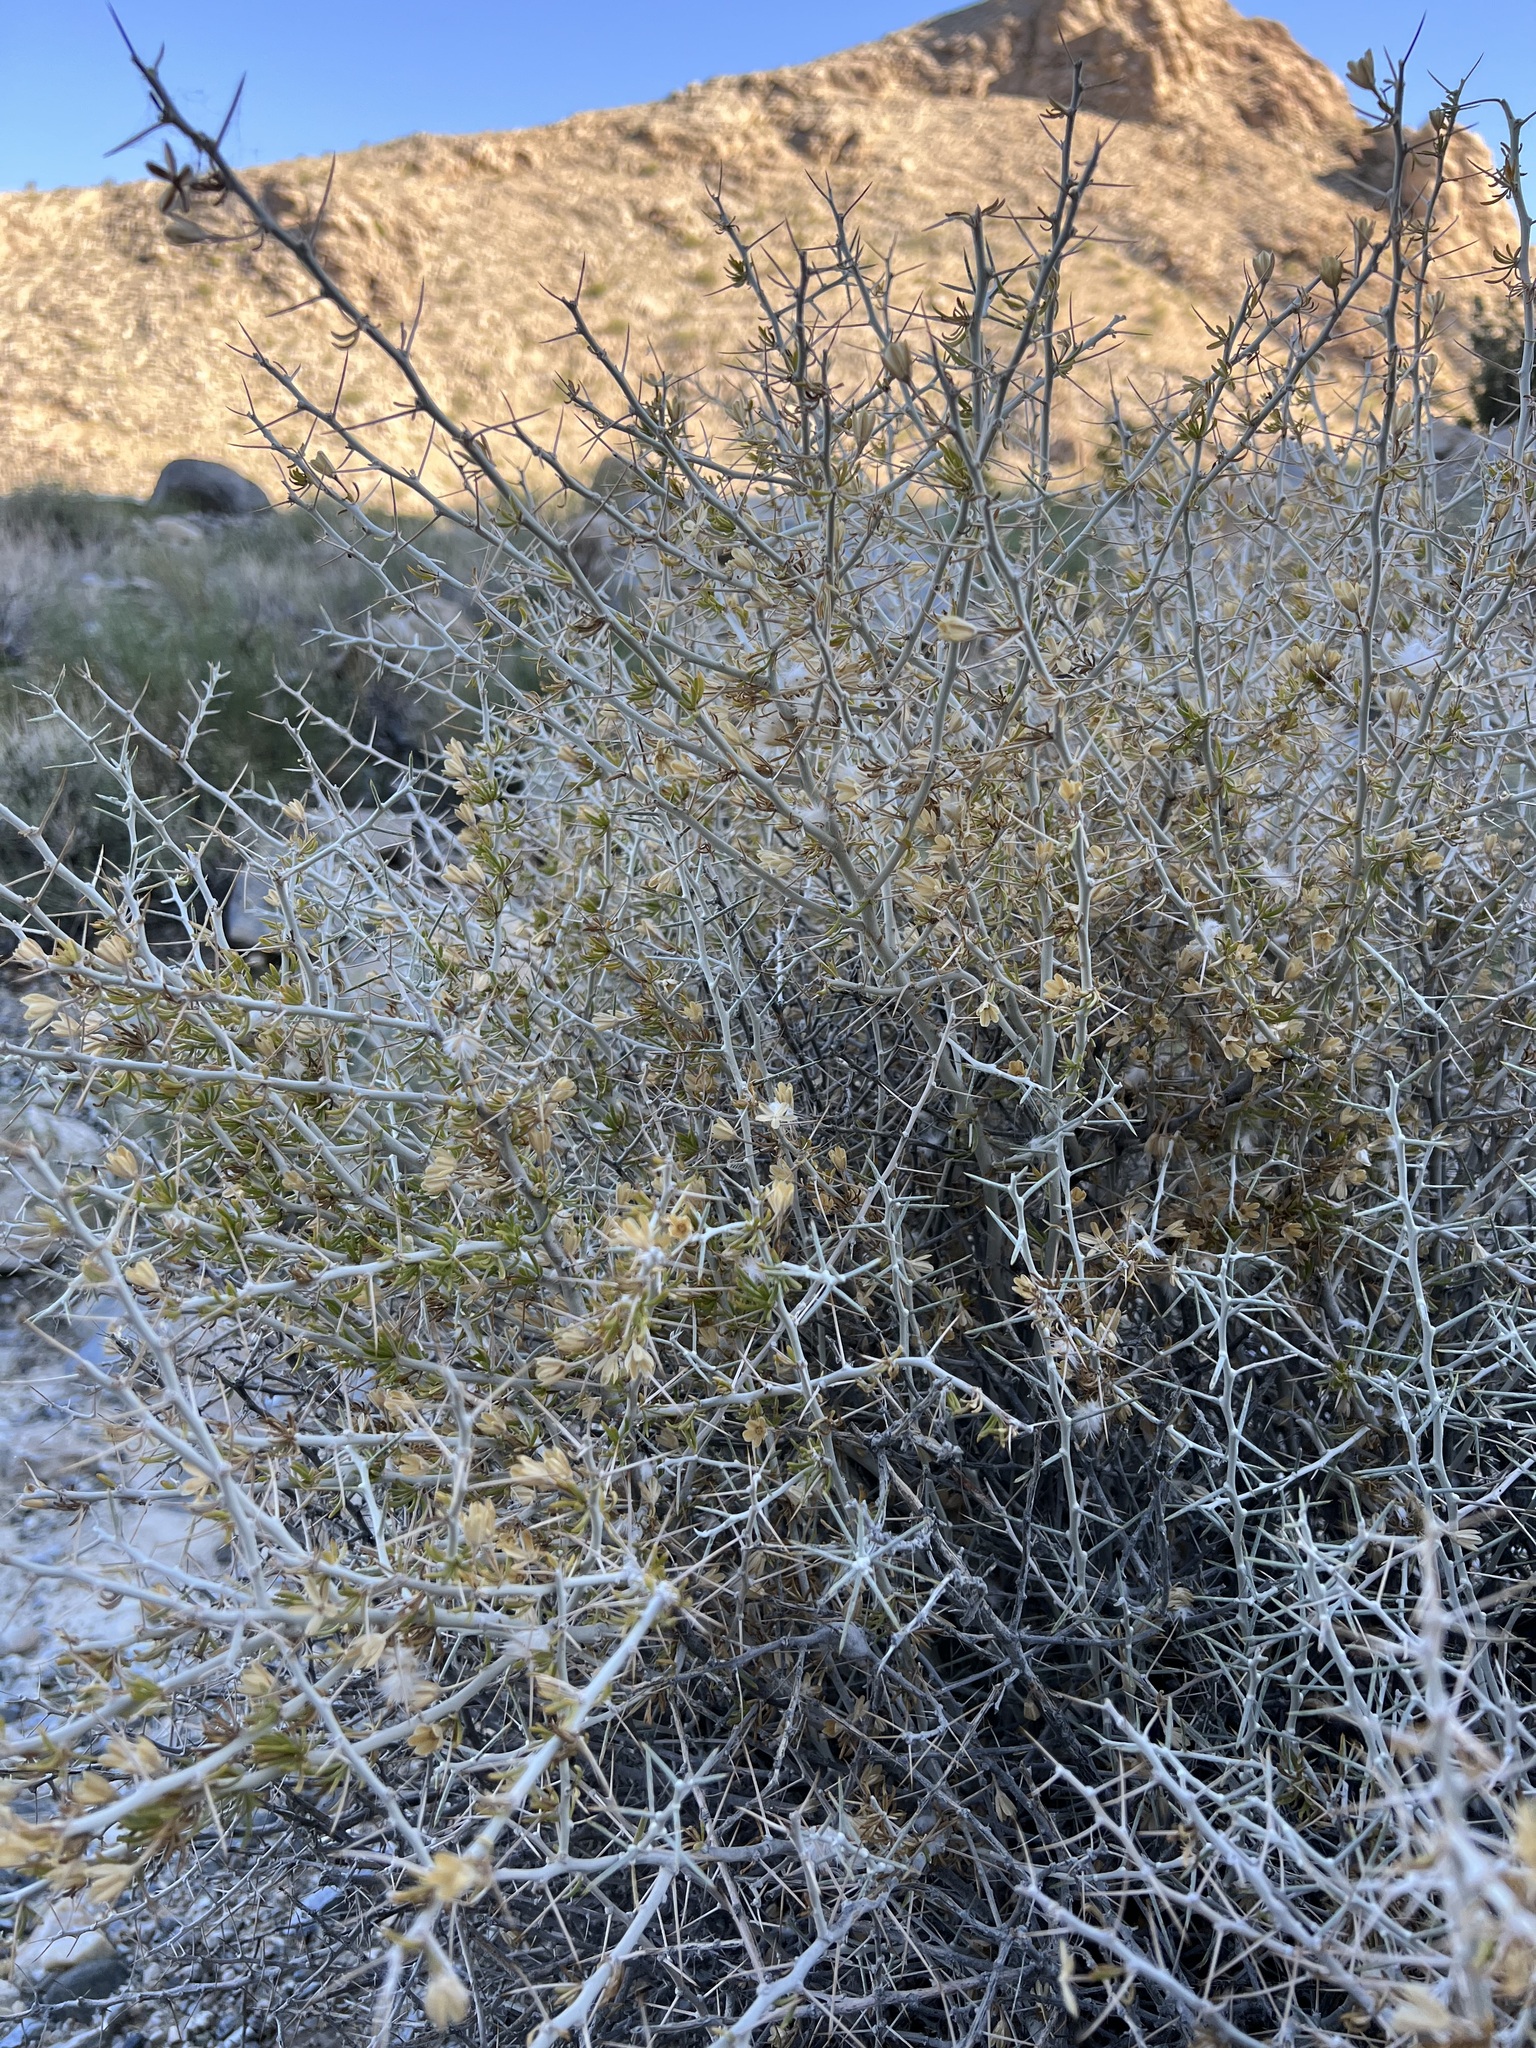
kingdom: Plantae
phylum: Tracheophyta
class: Magnoliopsida
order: Asterales
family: Asteraceae
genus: Tetradymia
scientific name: Tetradymia axillaris
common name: Long-spine horsebrush
